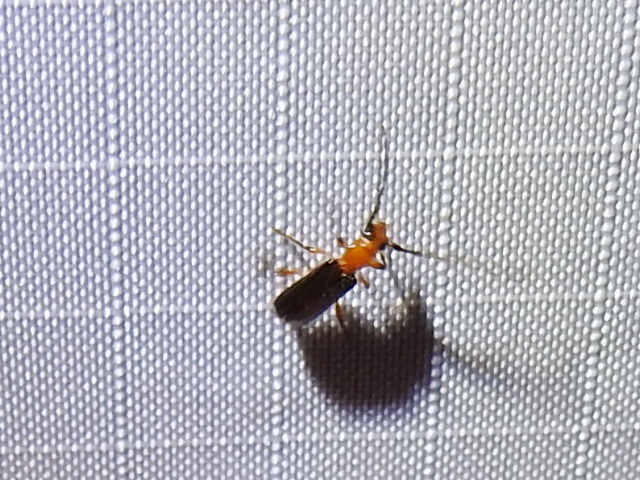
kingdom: Animalia
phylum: Arthropoda
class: Insecta
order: Coleoptera
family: Cerambycidae
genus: Obrium
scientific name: Obrium mozinnae
